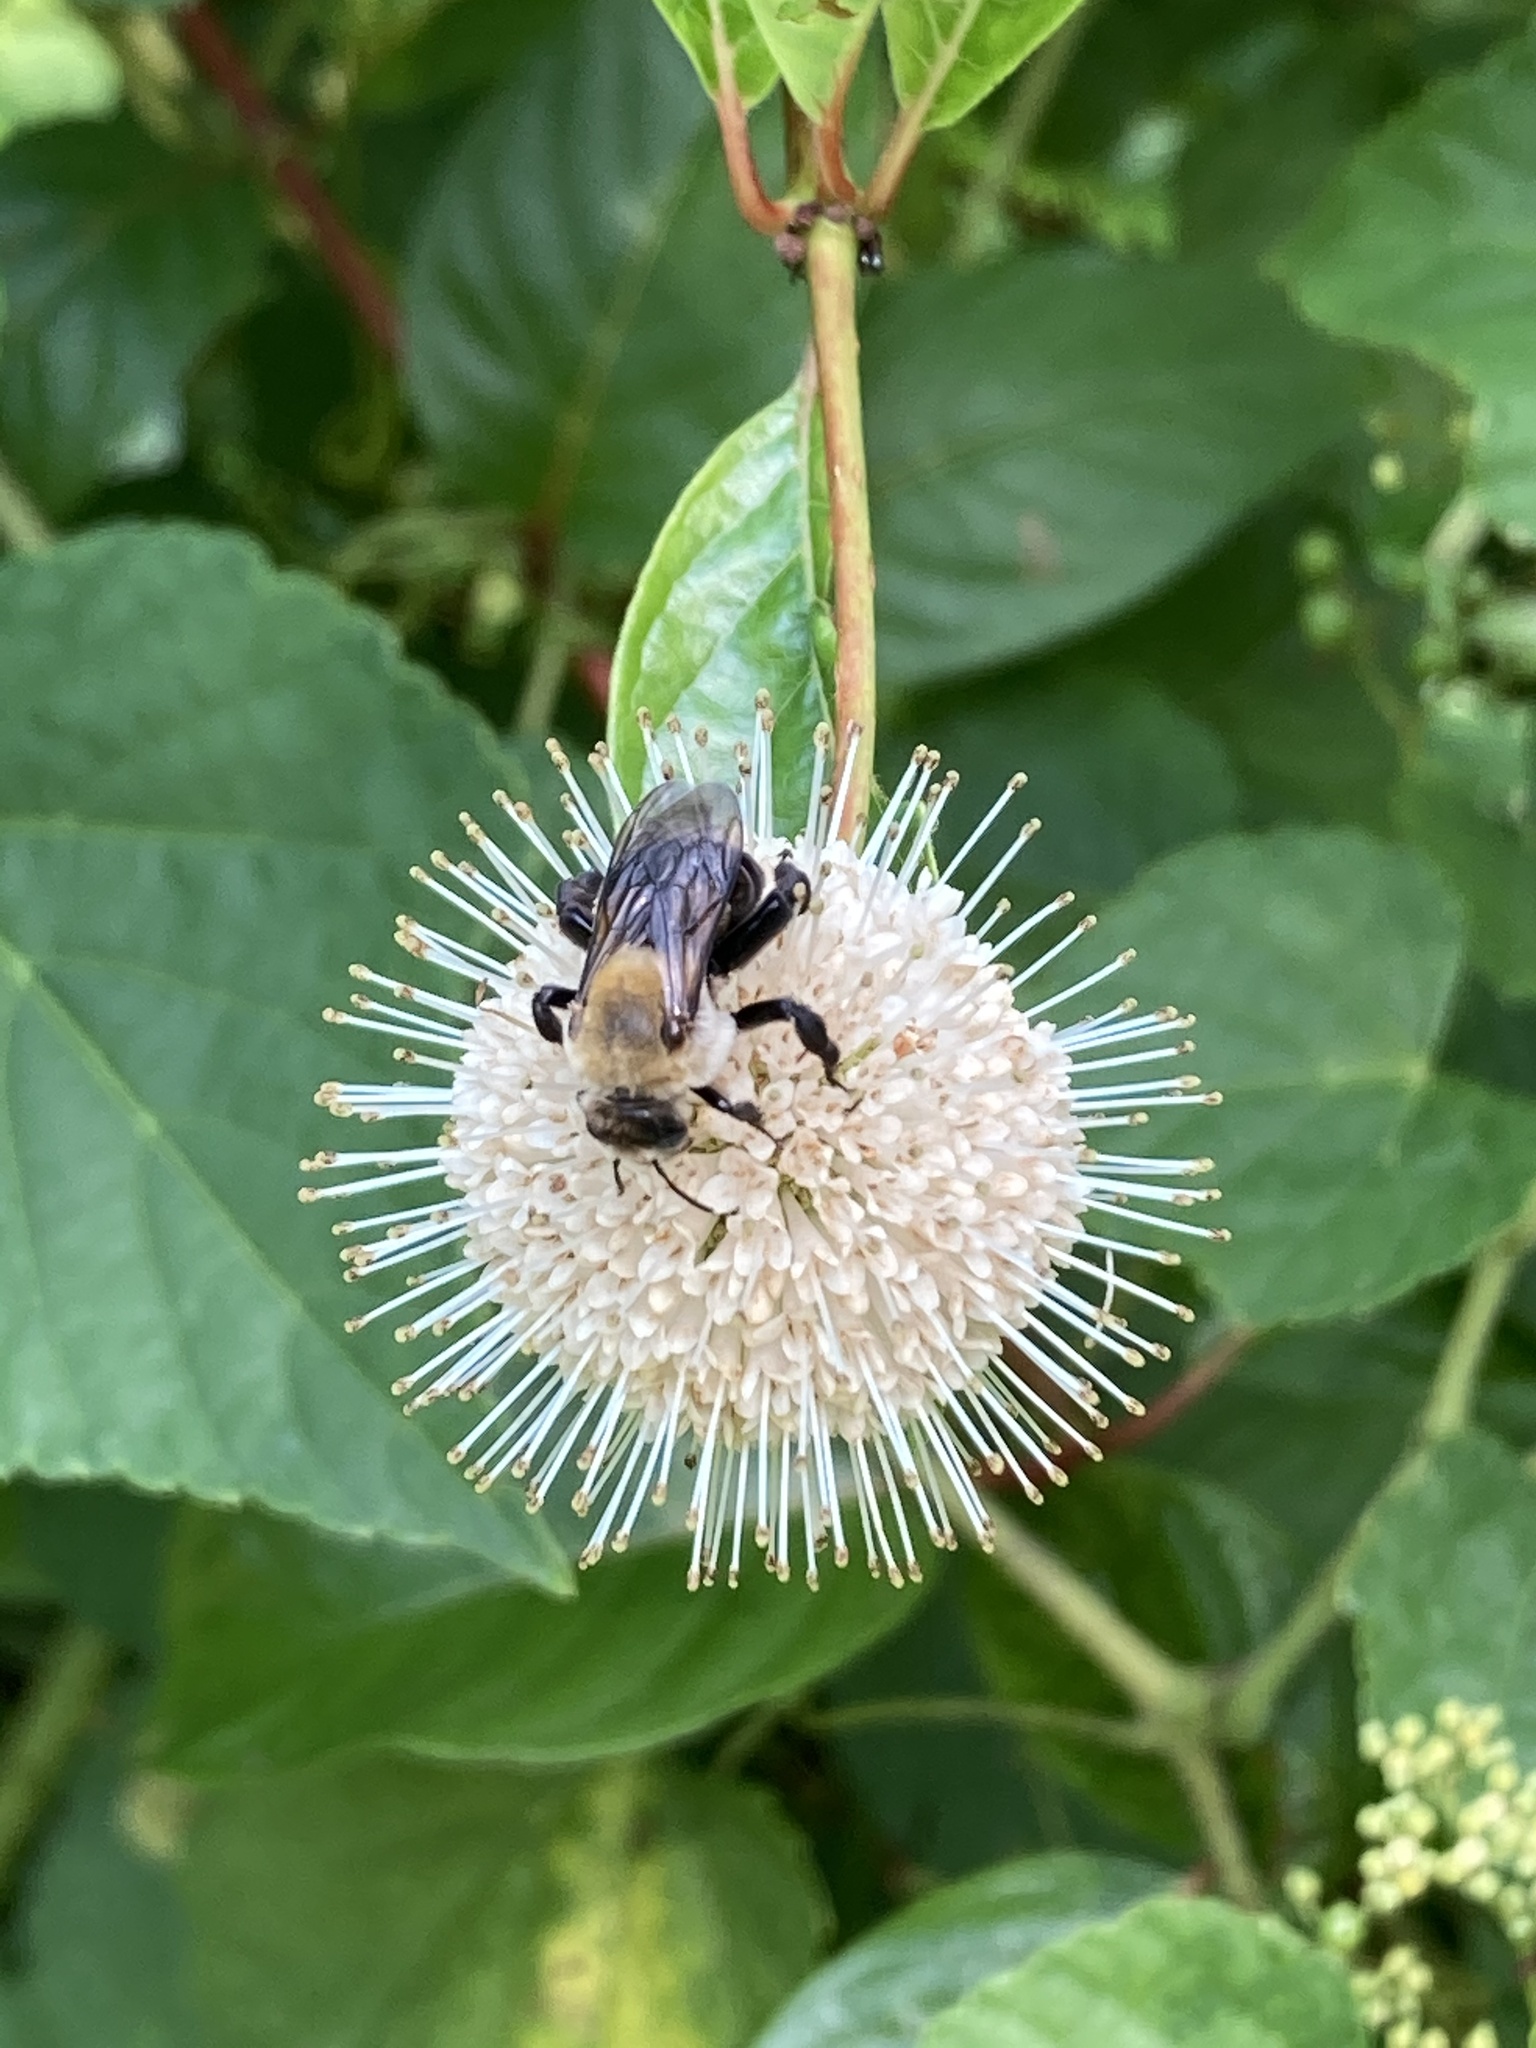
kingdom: Animalia
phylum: Arthropoda
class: Insecta
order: Hymenoptera
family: Apidae
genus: Ptilothrix
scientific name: Ptilothrix bombiformis
